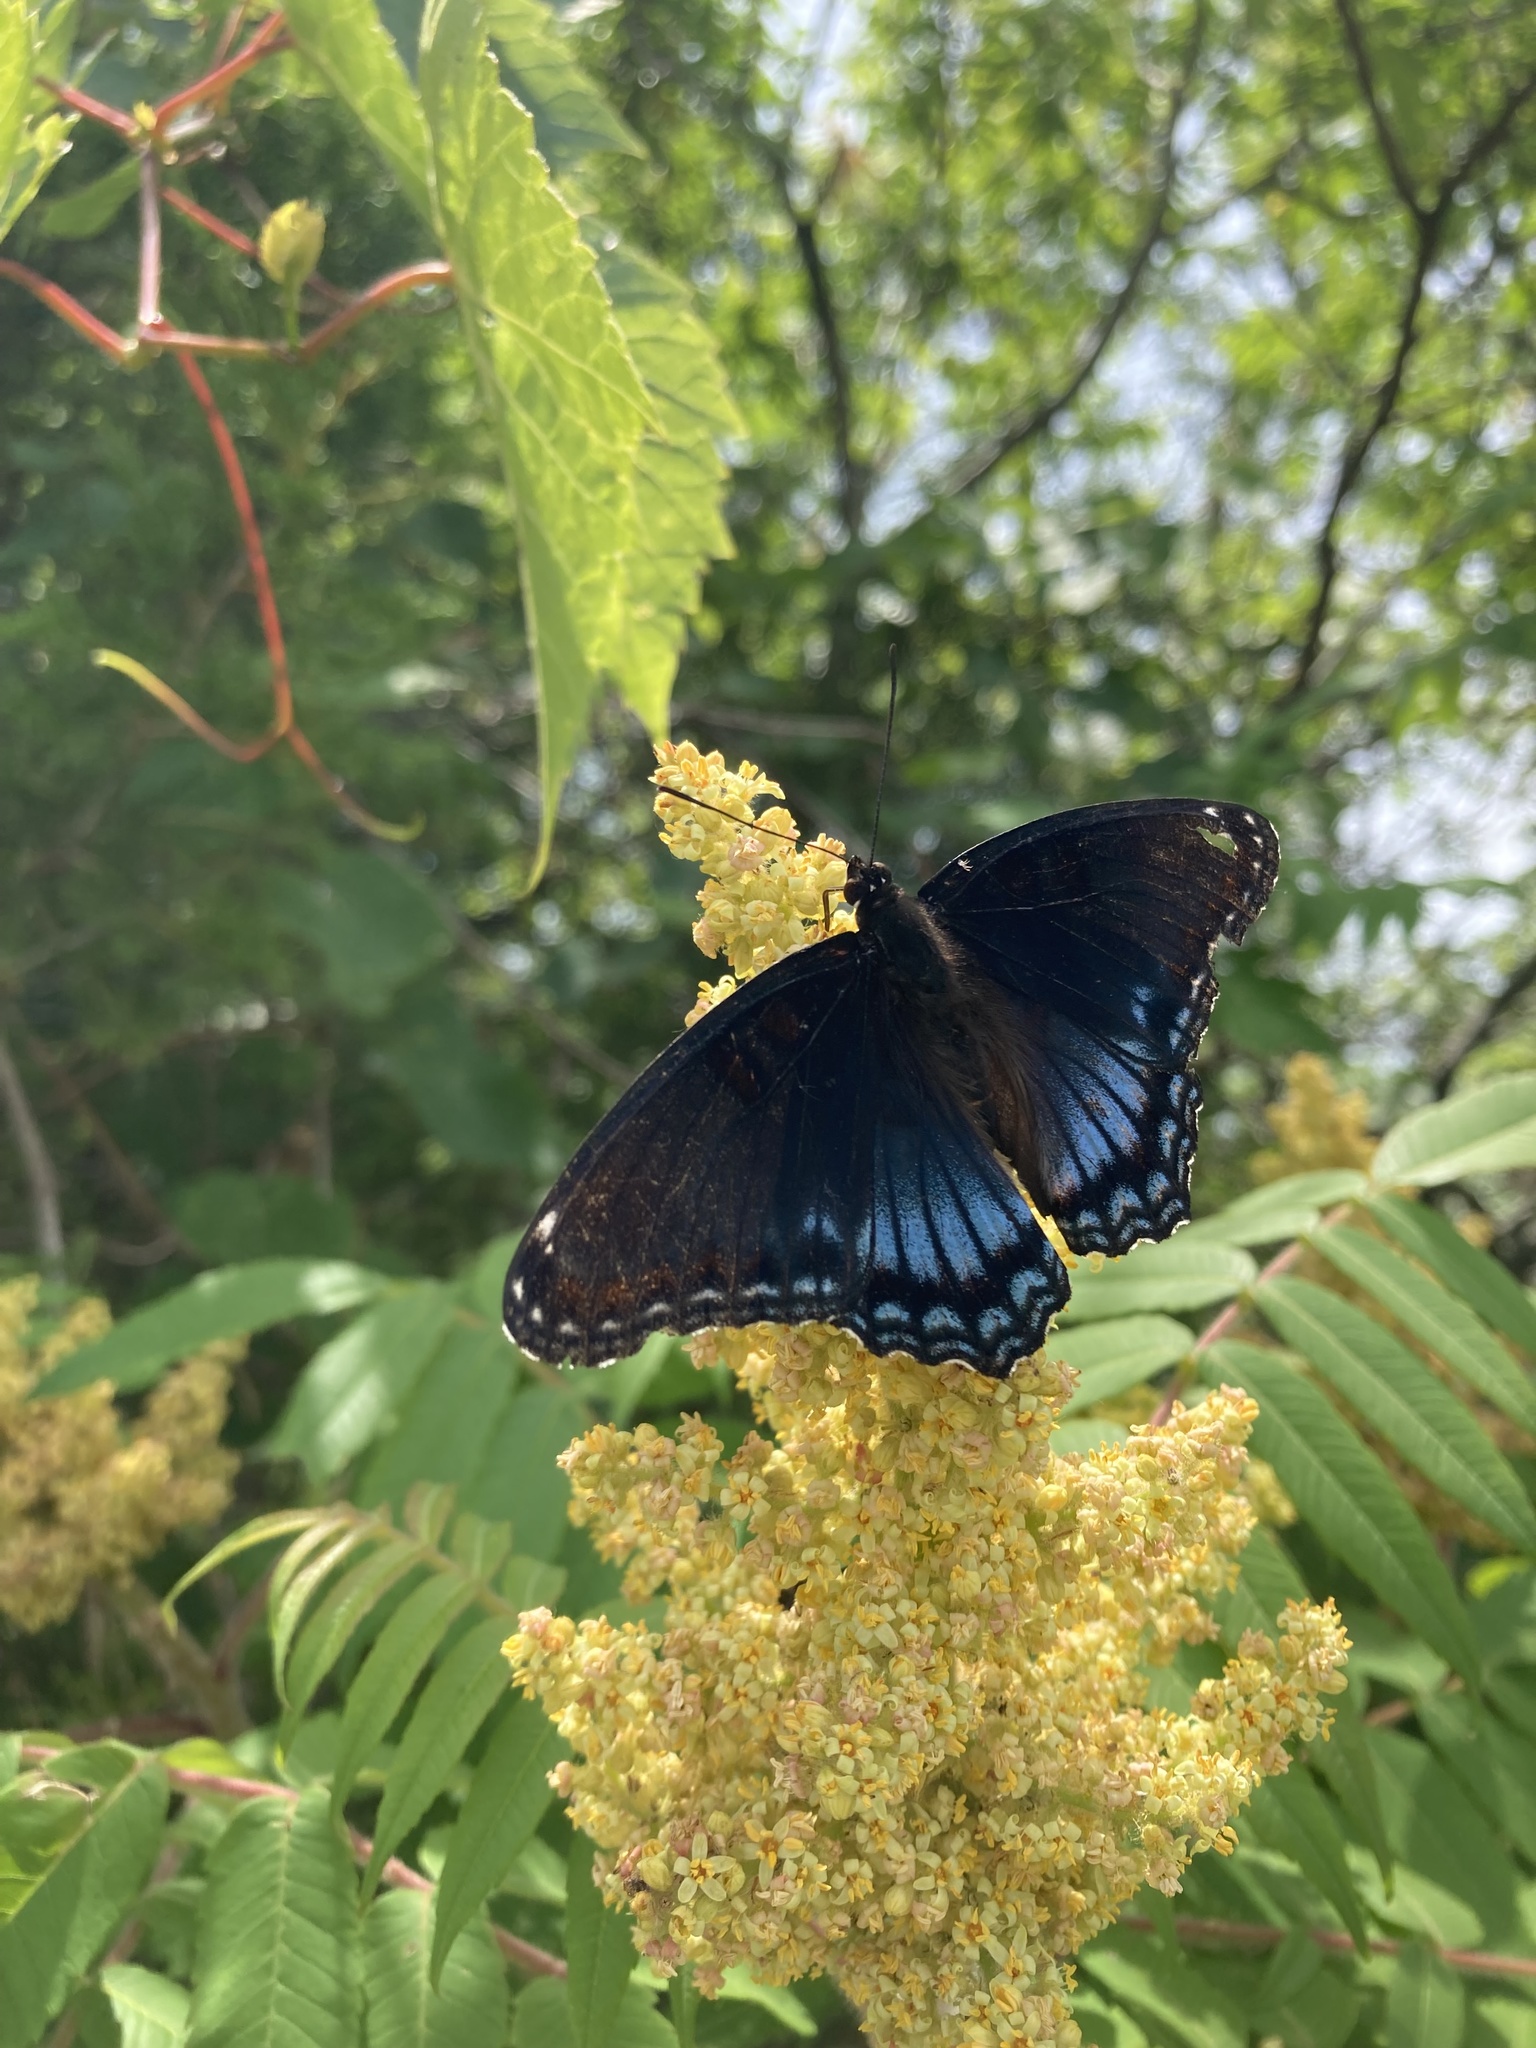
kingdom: Animalia
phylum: Arthropoda
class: Insecta
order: Lepidoptera
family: Nymphalidae
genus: Limenitis
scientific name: Limenitis astyanax
